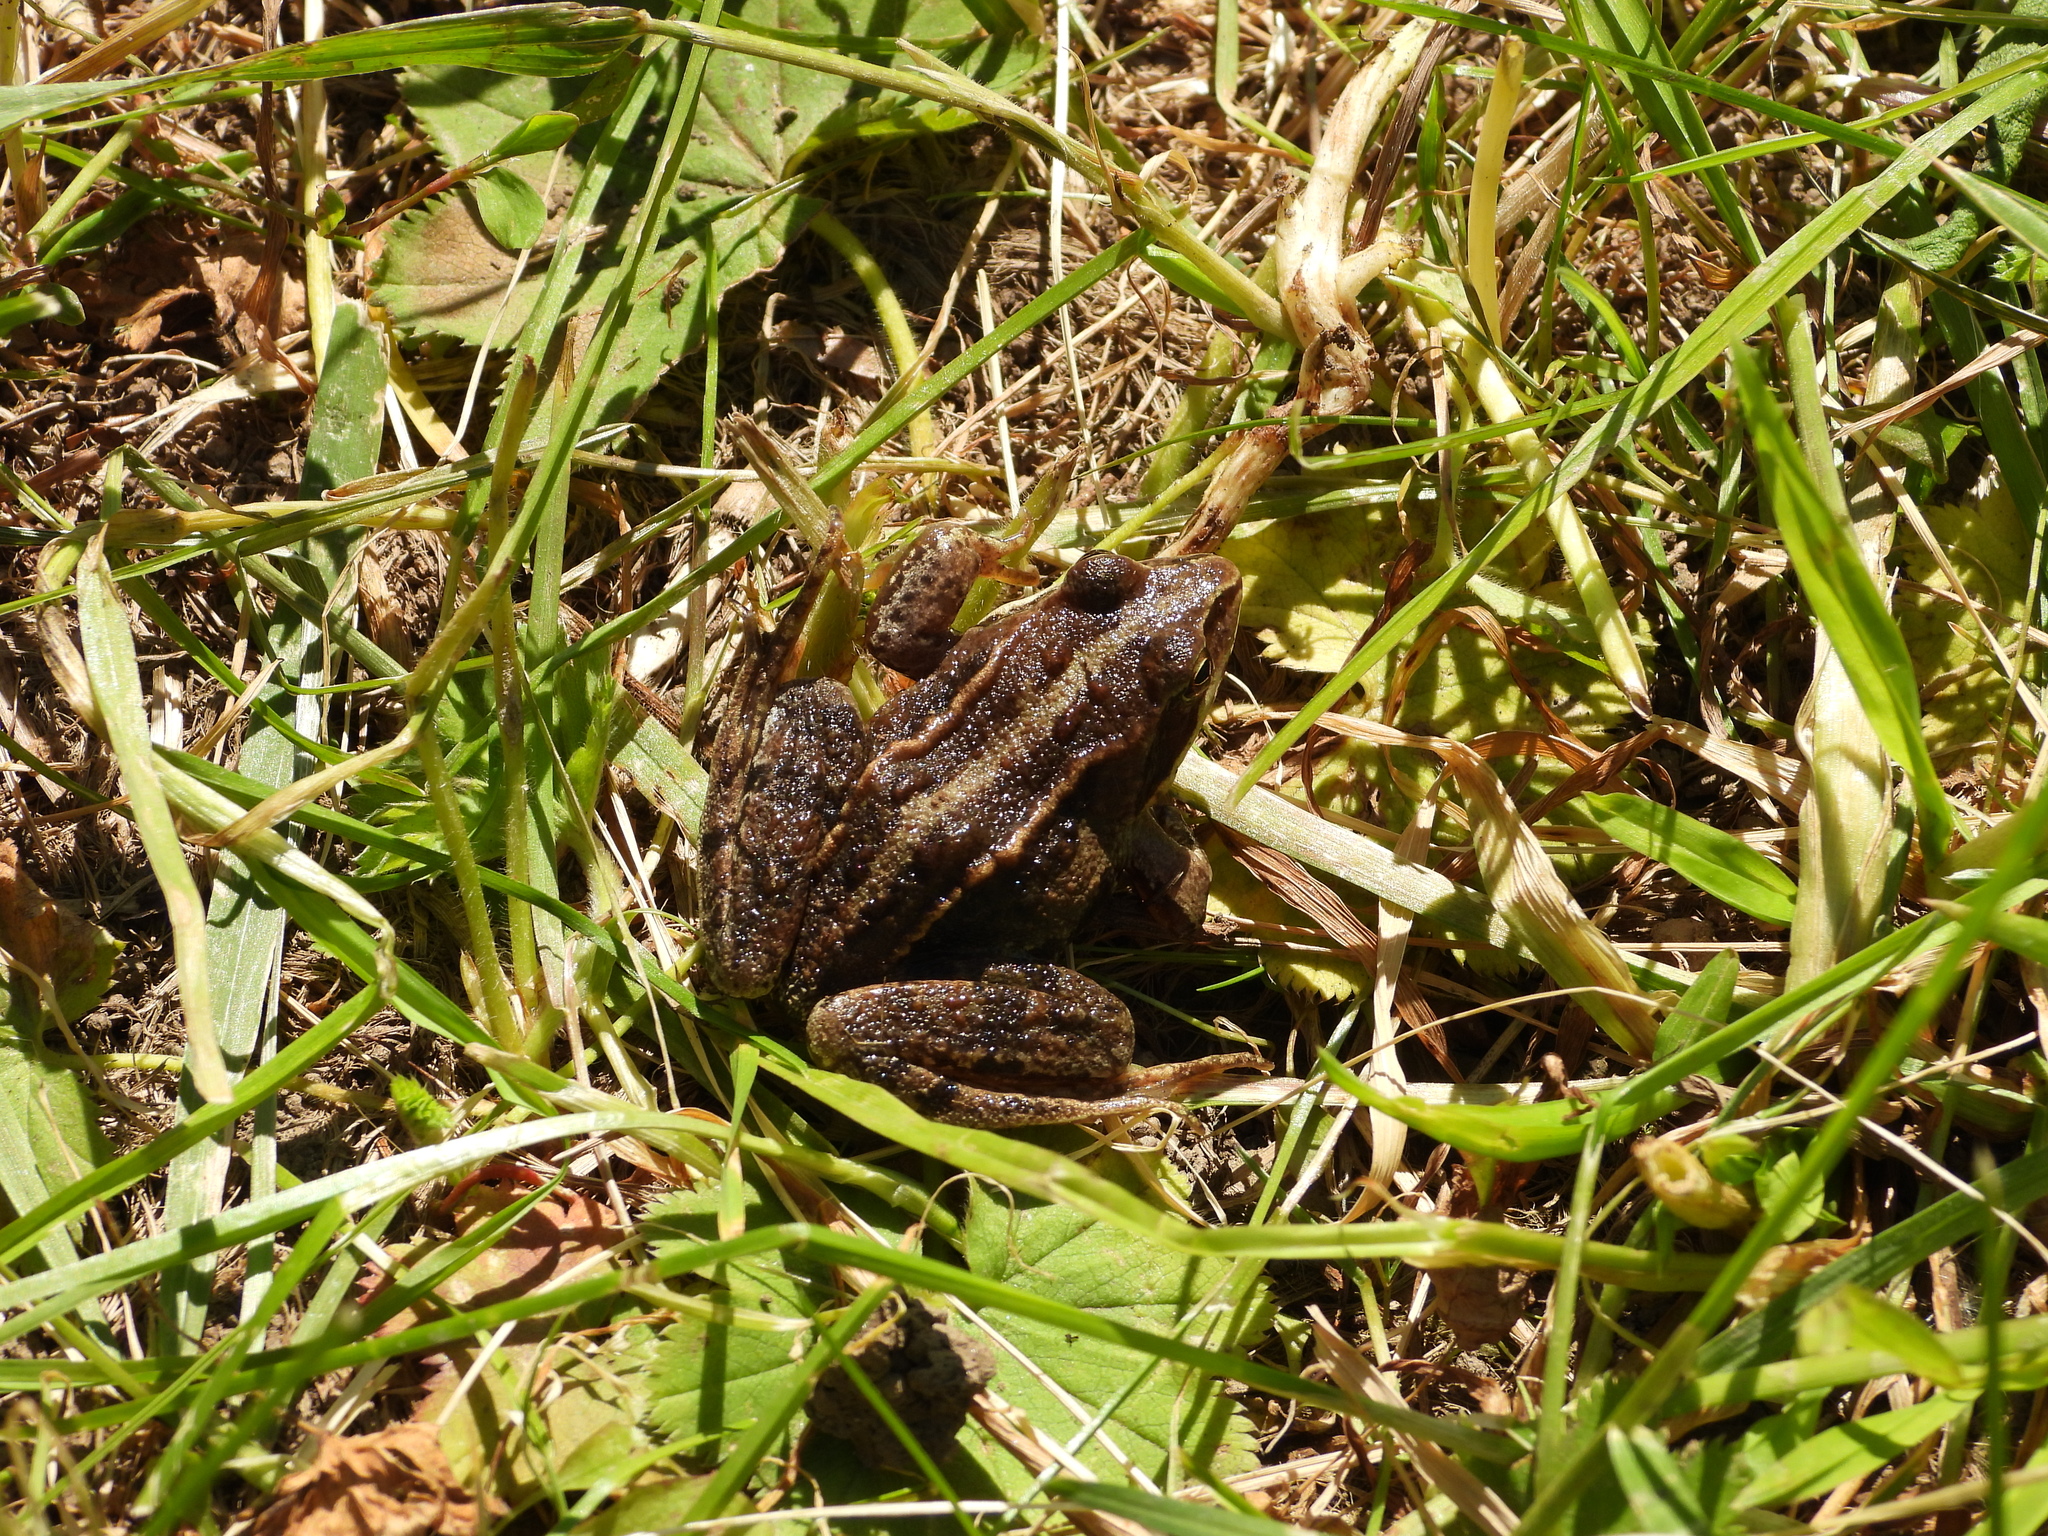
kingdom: Animalia
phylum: Chordata
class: Amphibia
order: Anura
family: Ranidae
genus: Rana
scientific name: Rana arvalis
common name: Moor frog
